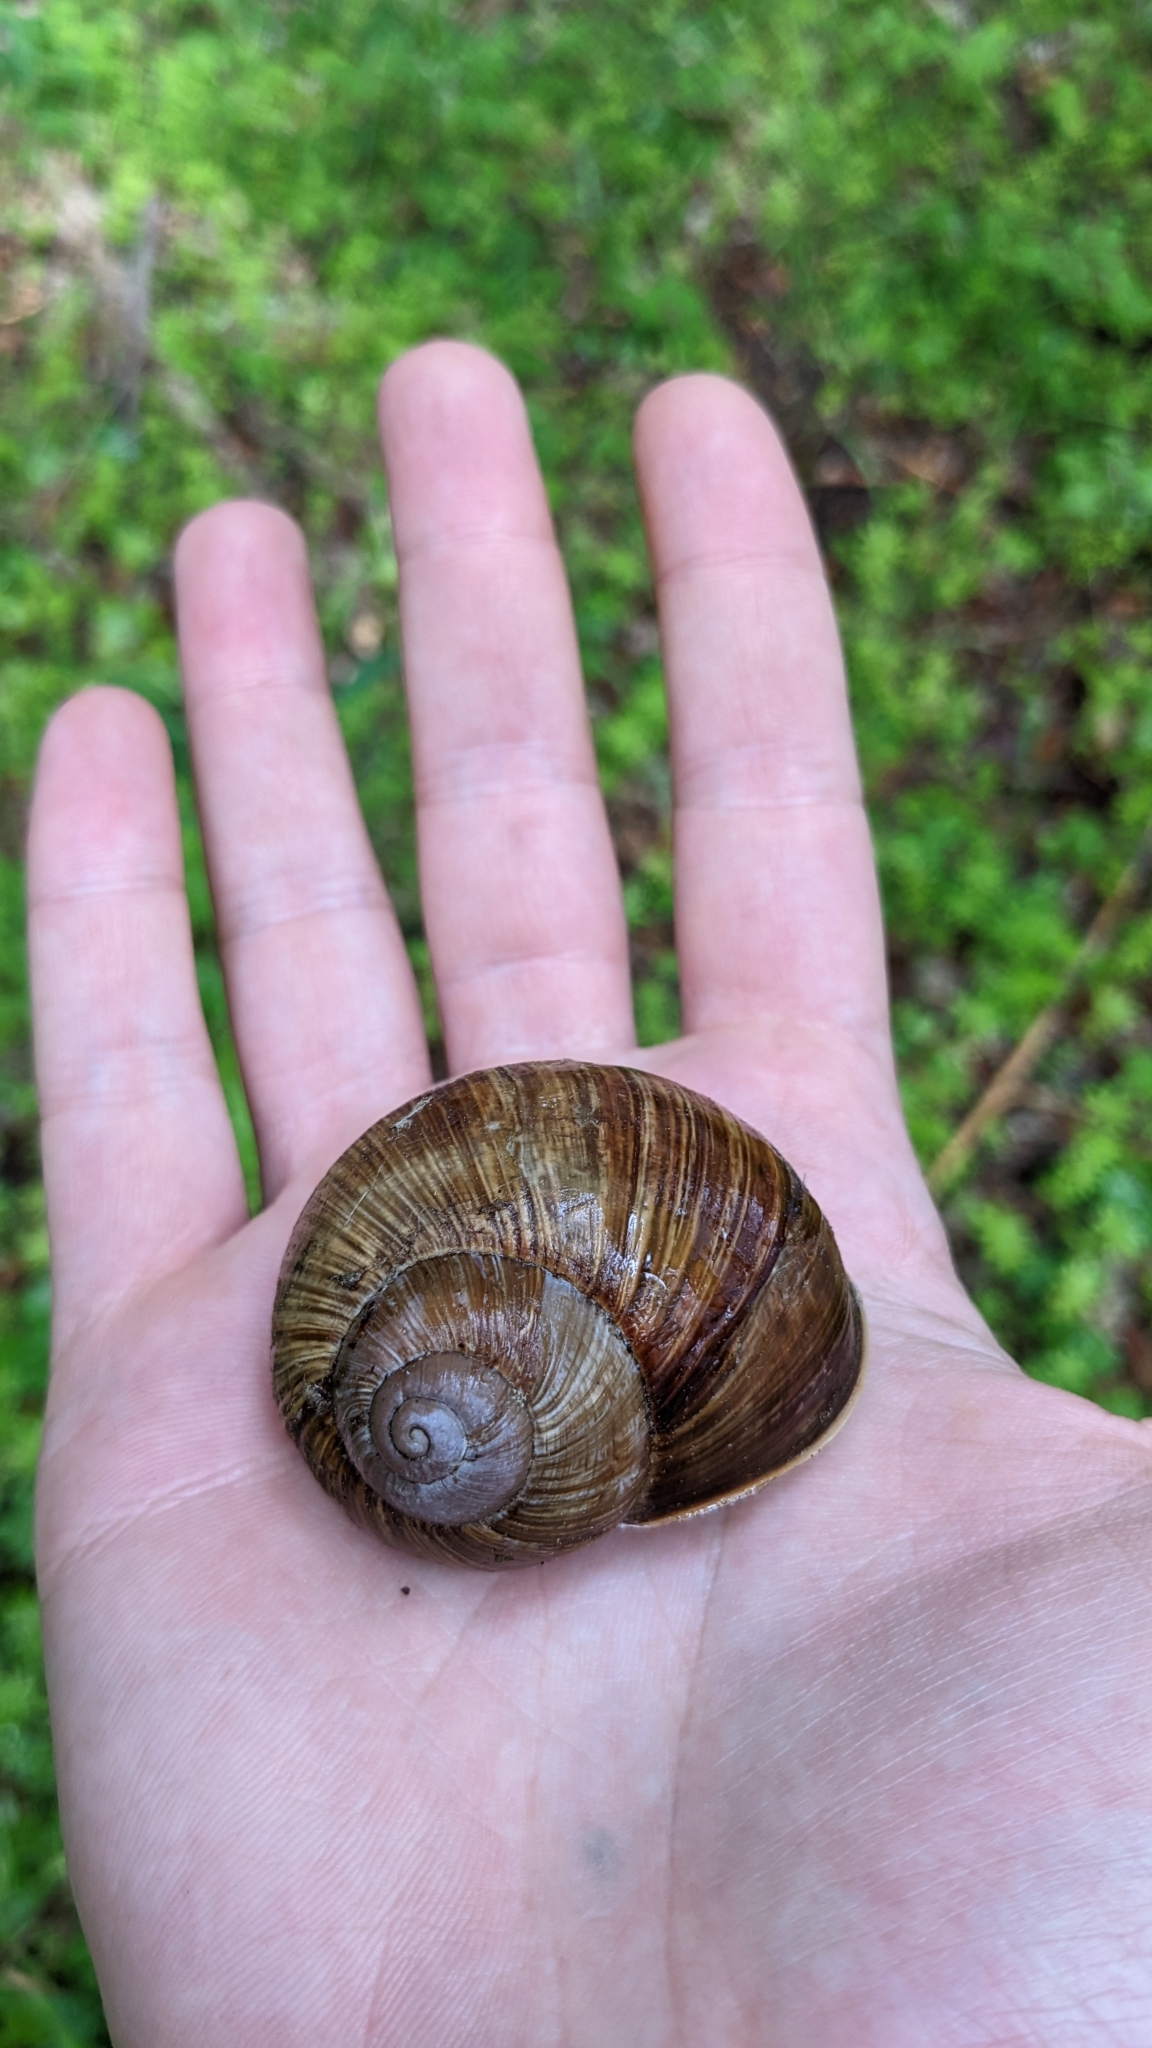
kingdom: Animalia
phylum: Mollusca
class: Gastropoda
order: Stylommatophora
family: Helicidae
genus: Helix
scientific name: Helix pomatia
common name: Roman snail
